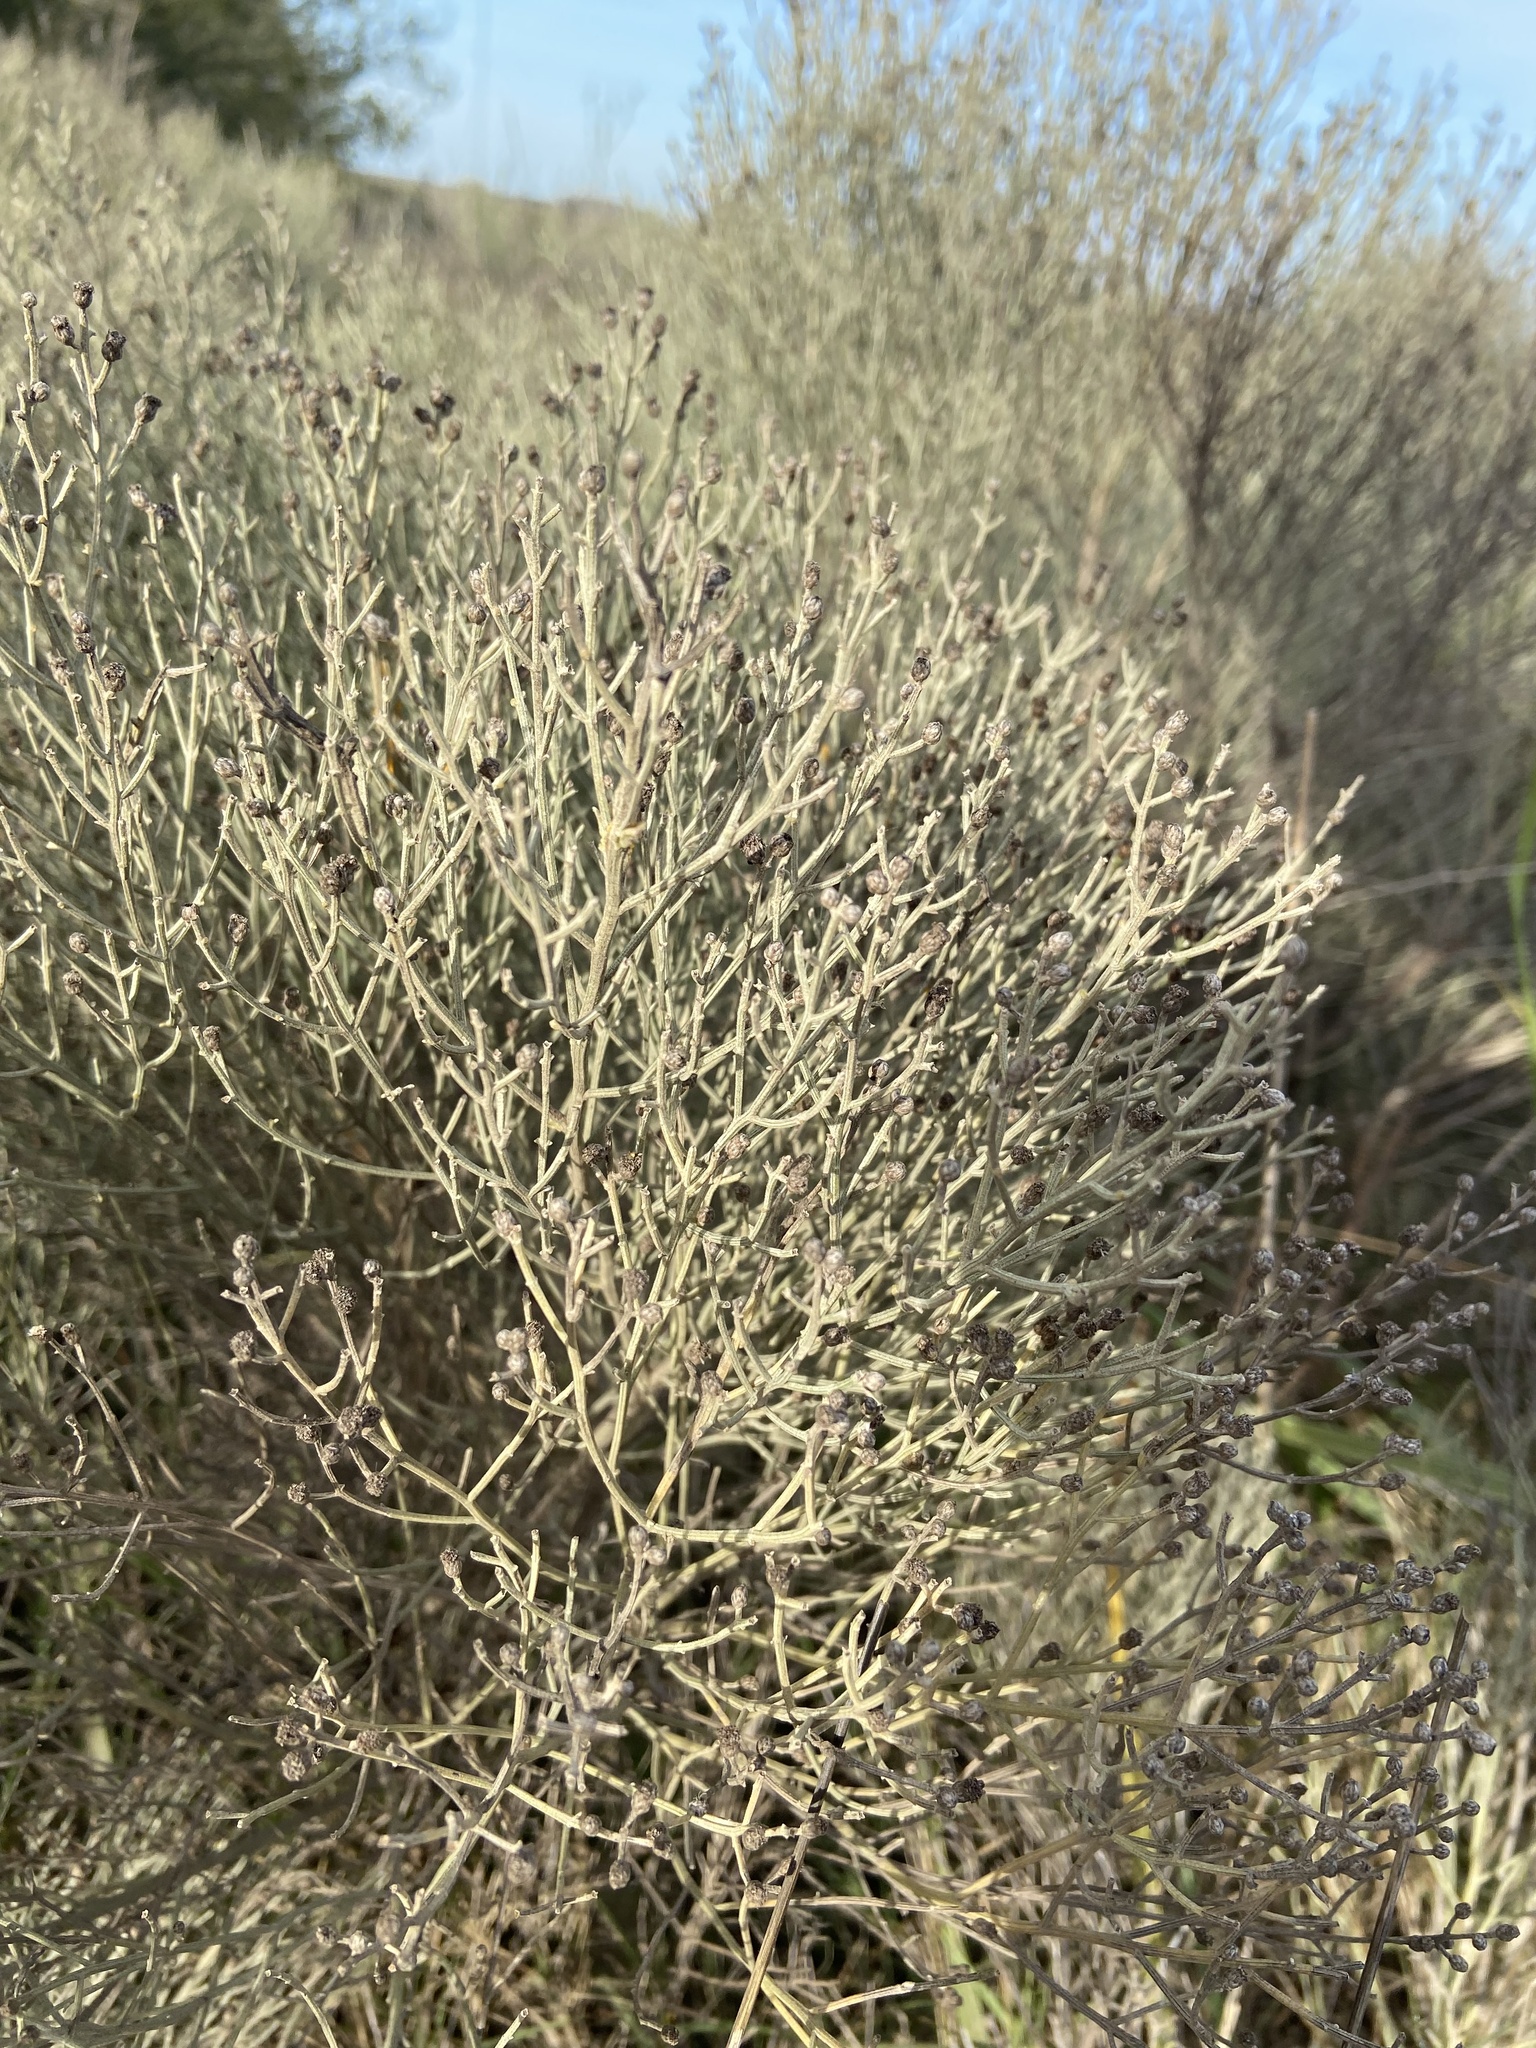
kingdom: Plantae
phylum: Tracheophyta
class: Magnoliopsida
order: Asterales
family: Asteraceae
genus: Baccharis
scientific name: Baccharis notosergila
